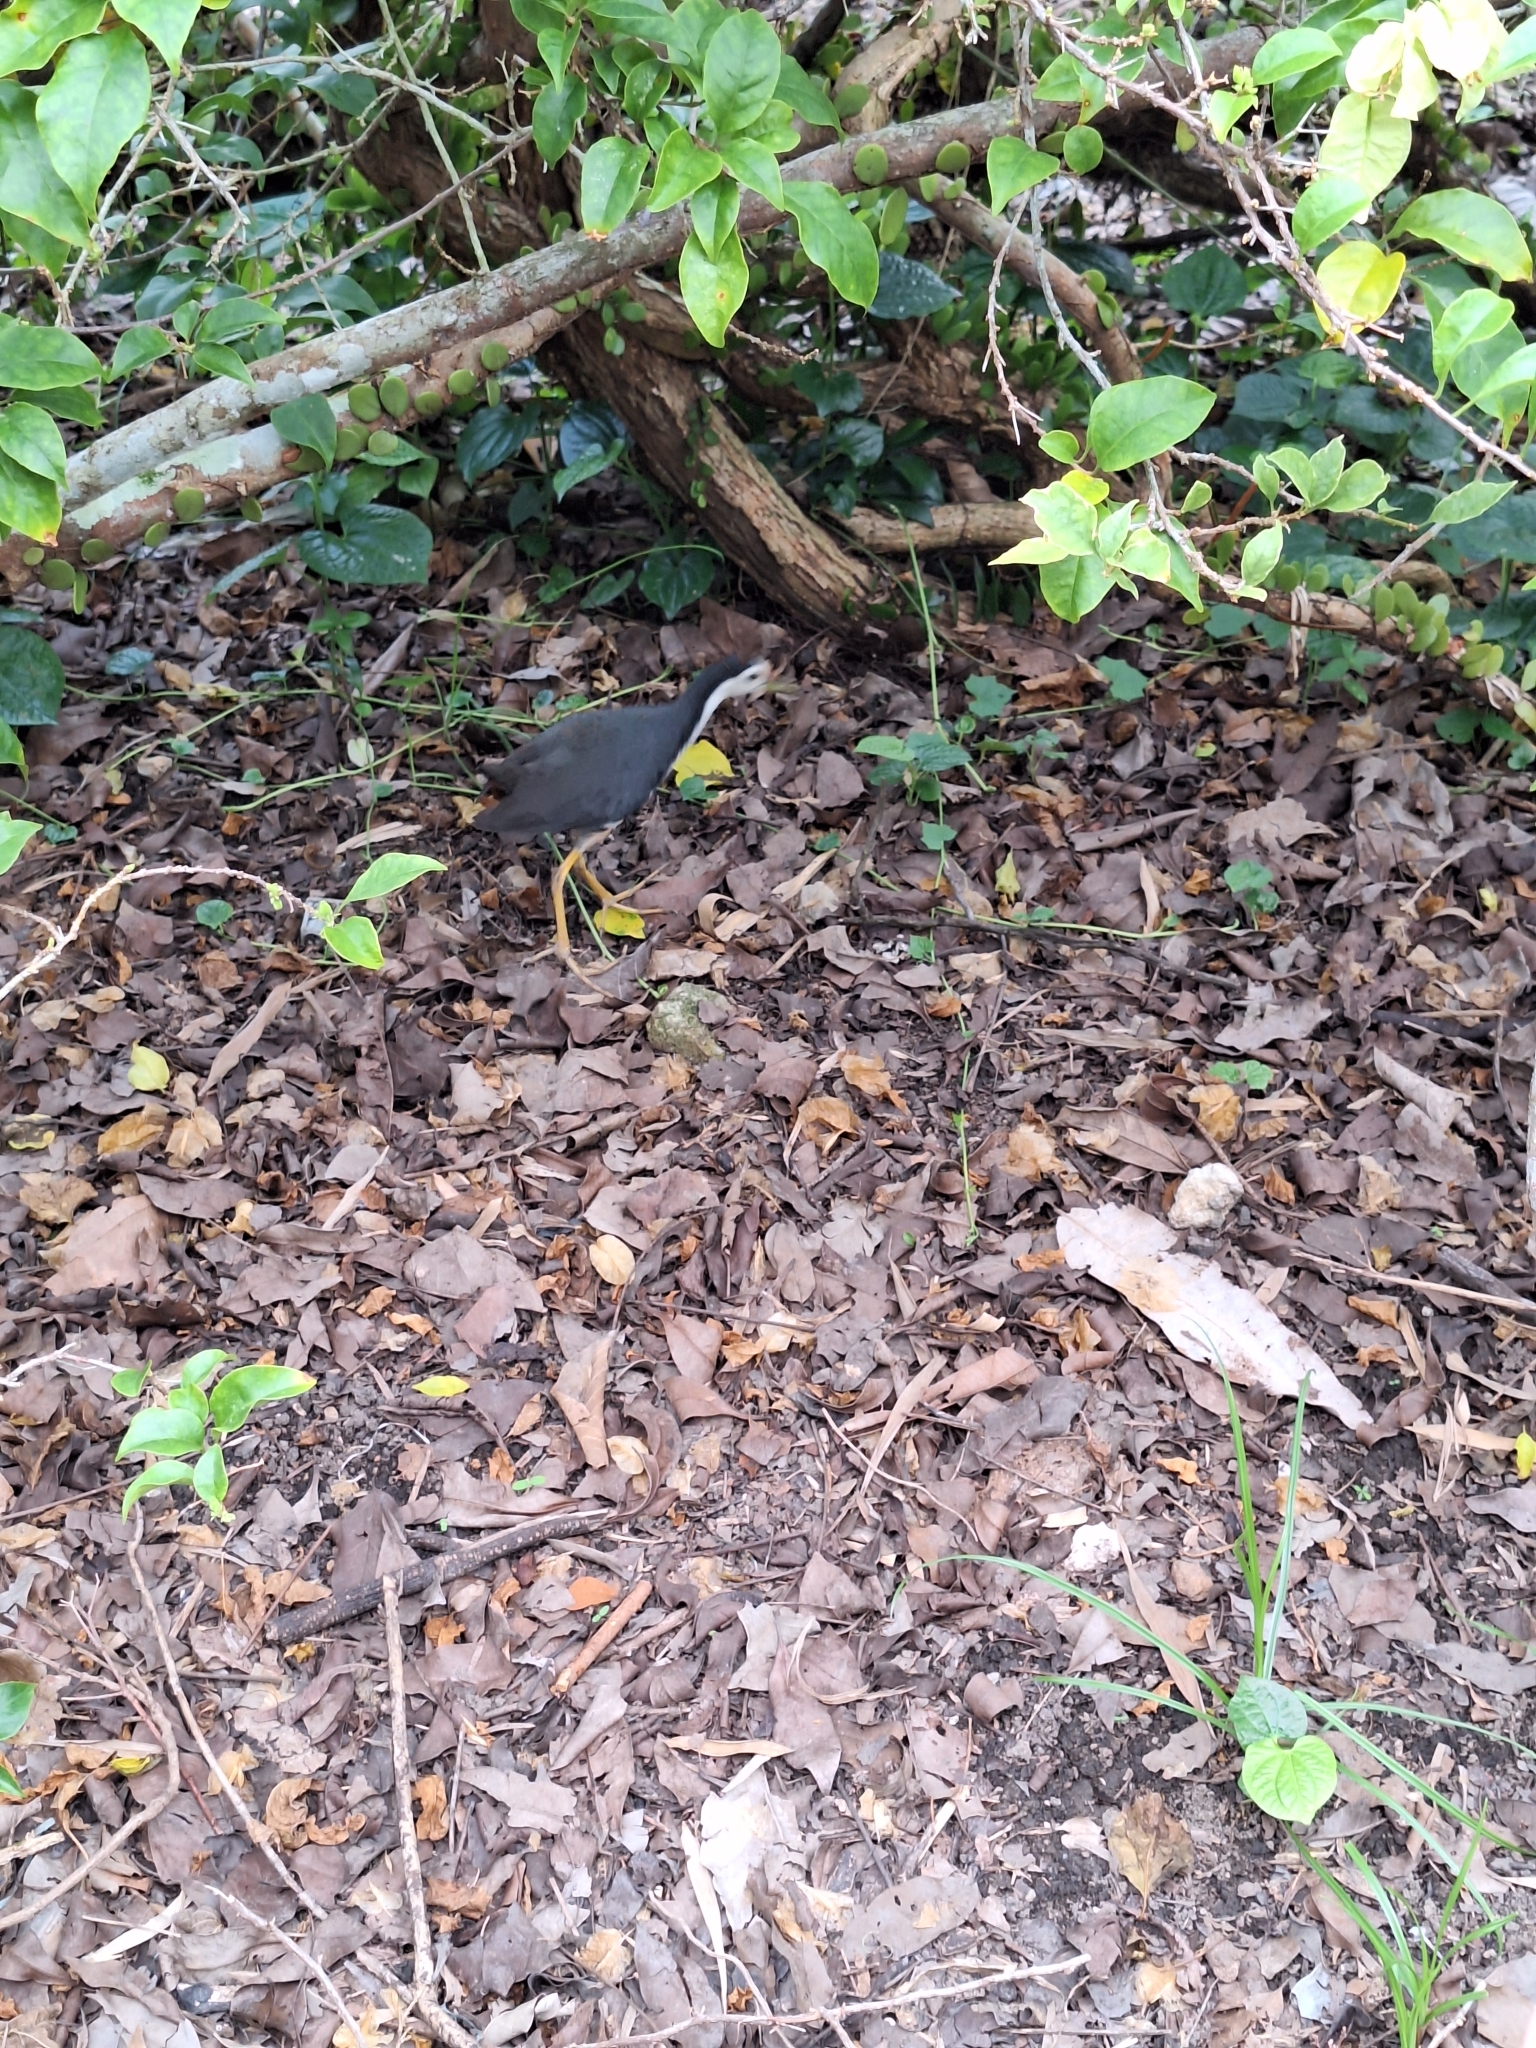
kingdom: Animalia
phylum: Chordata
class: Aves
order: Gruiformes
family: Rallidae
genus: Amaurornis
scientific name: Amaurornis phoenicurus
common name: White-breasted waterhen
